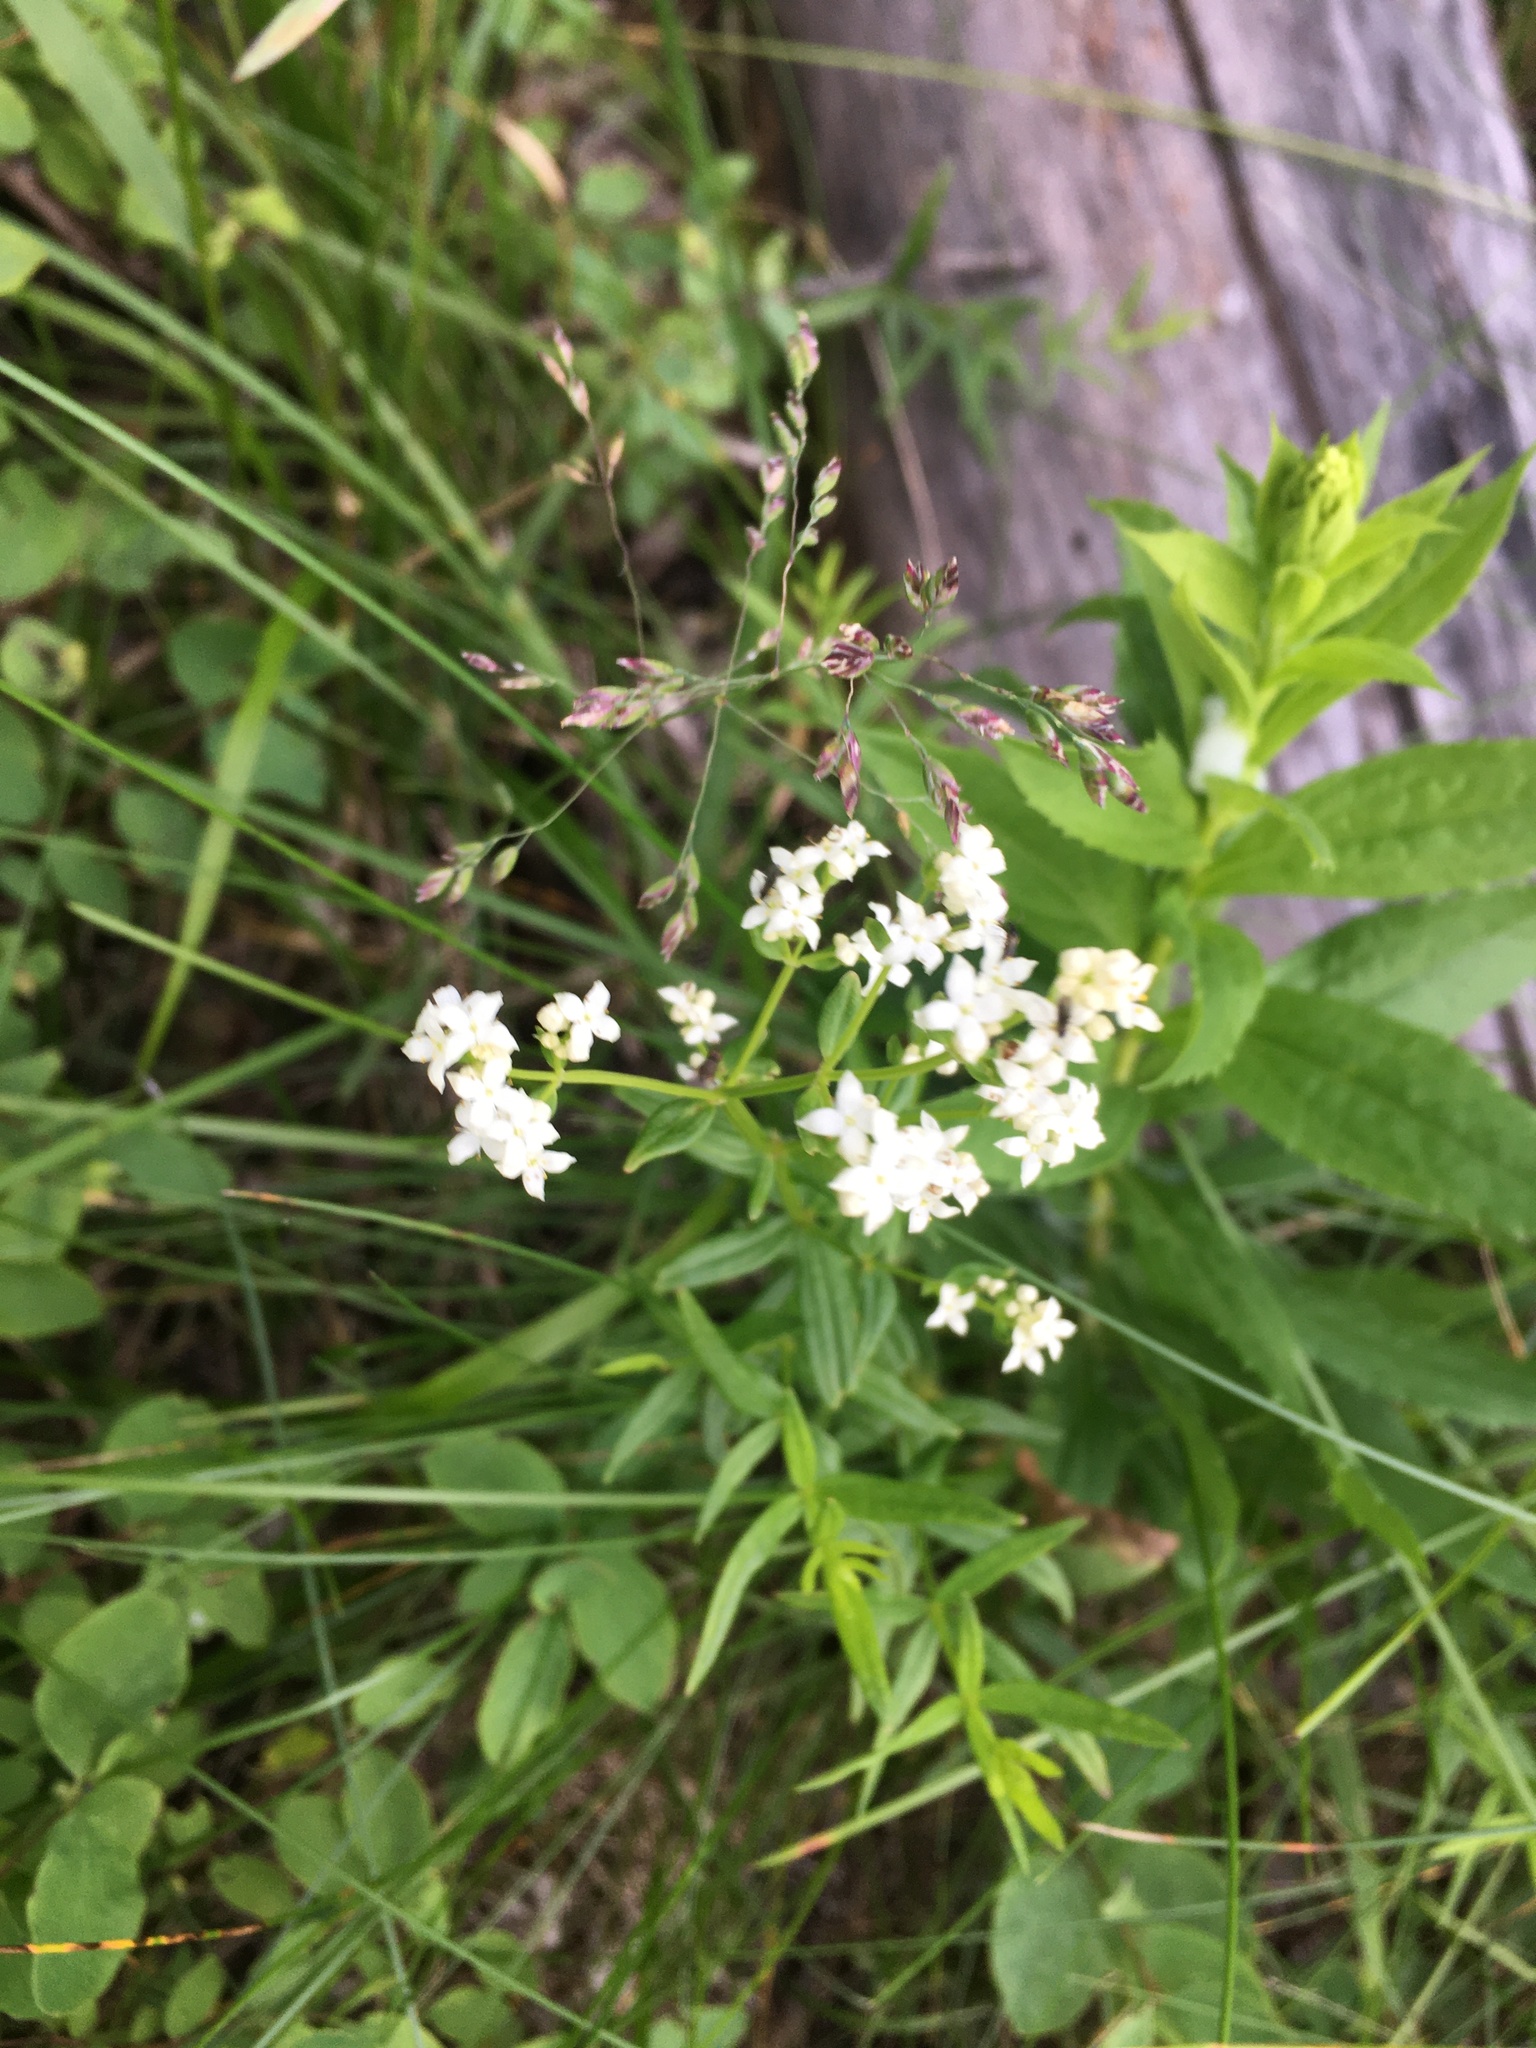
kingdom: Plantae
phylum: Tracheophyta
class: Magnoliopsida
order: Gentianales
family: Rubiaceae
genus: Galium
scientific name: Galium boreale
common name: Northern bedstraw
